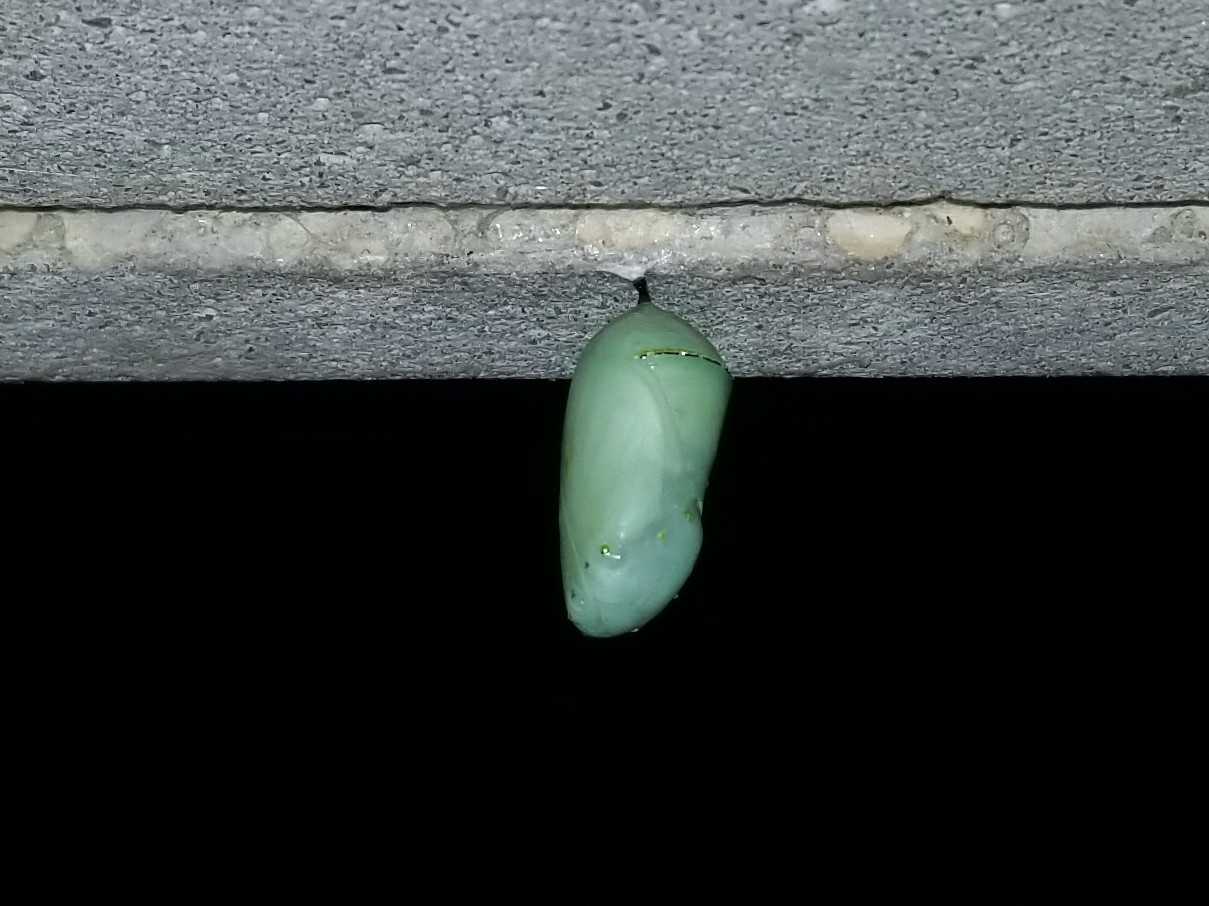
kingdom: Animalia
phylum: Arthropoda
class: Insecta
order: Lepidoptera
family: Nymphalidae
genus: Danaus
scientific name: Danaus plexippus
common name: Monarch
